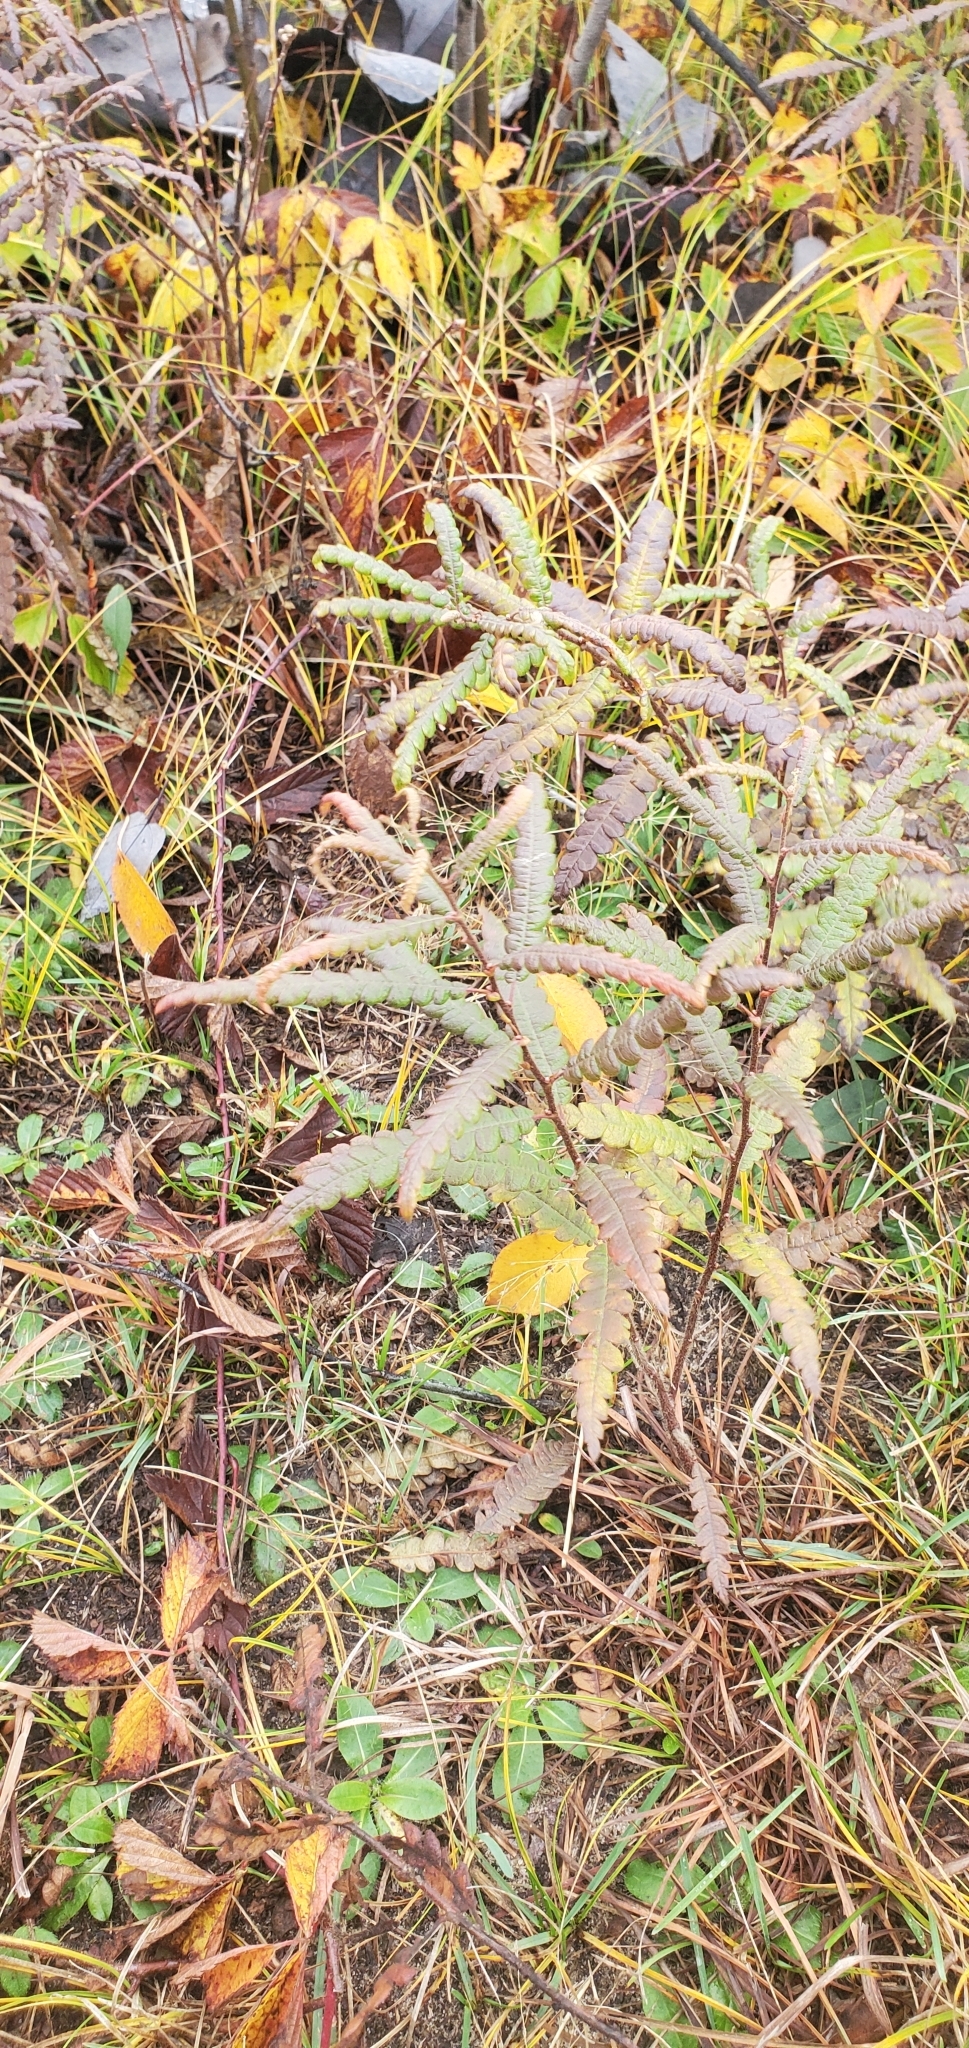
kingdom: Plantae
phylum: Tracheophyta
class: Magnoliopsida
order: Fagales
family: Myricaceae
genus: Comptonia
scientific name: Comptonia peregrina
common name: Sweet-fern
